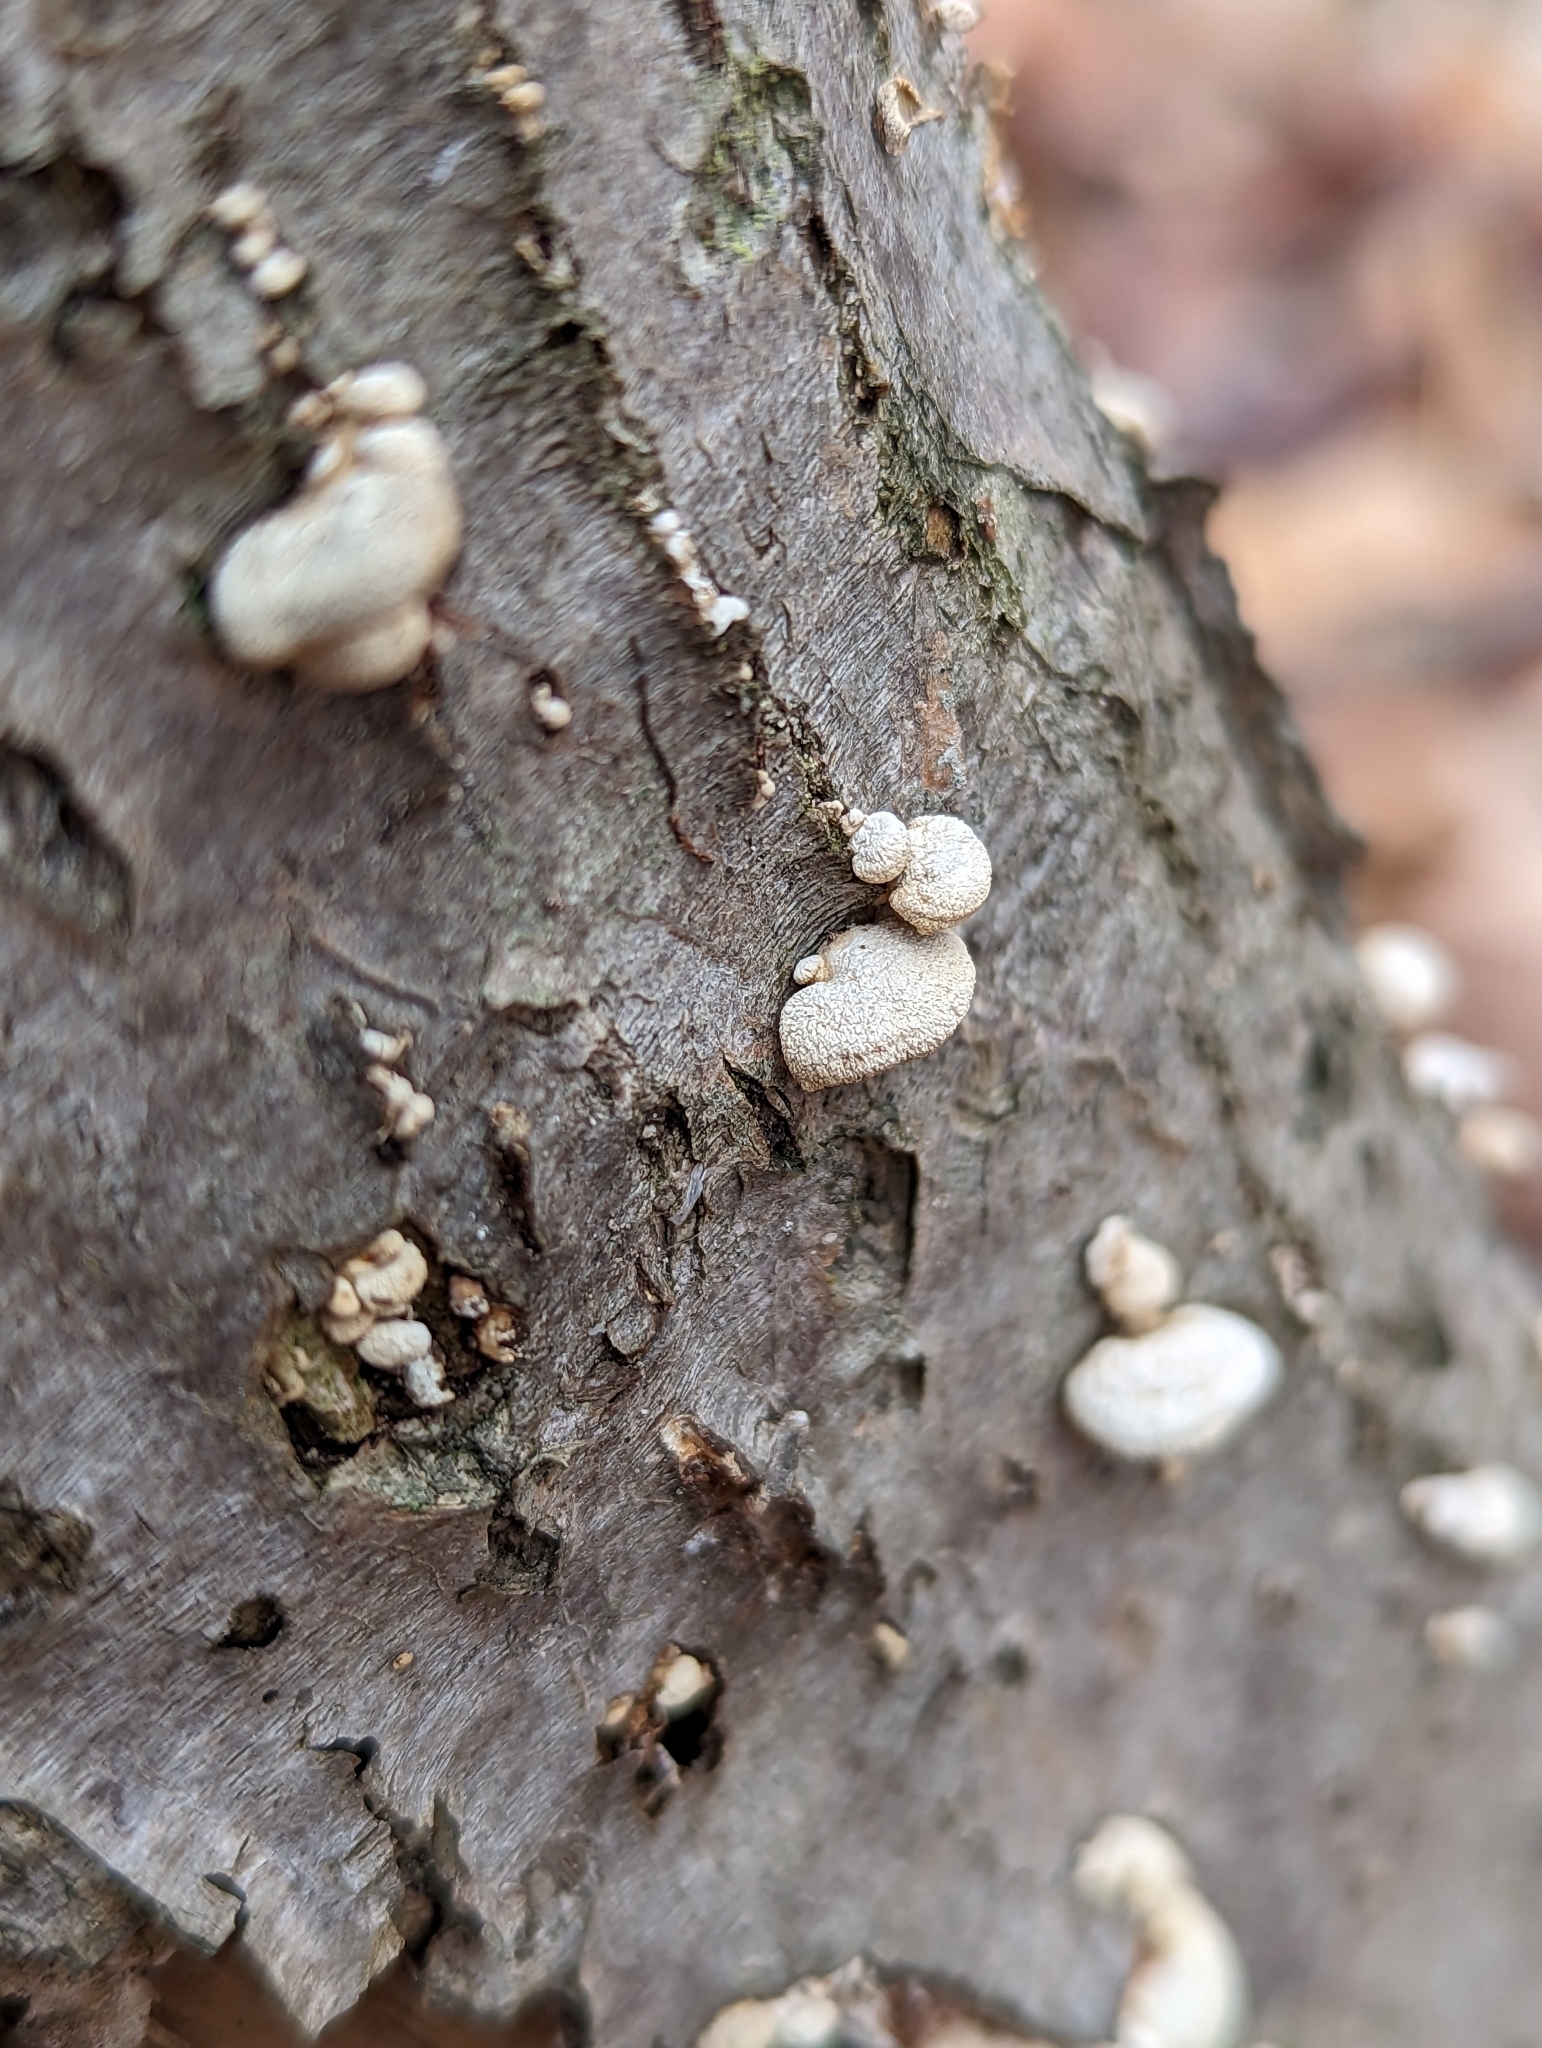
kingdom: Fungi
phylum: Basidiomycota
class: Agaricomycetes
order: Agaricales
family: Mycenaceae
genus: Panellus
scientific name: Panellus stipticus
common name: Bitter oysterling
